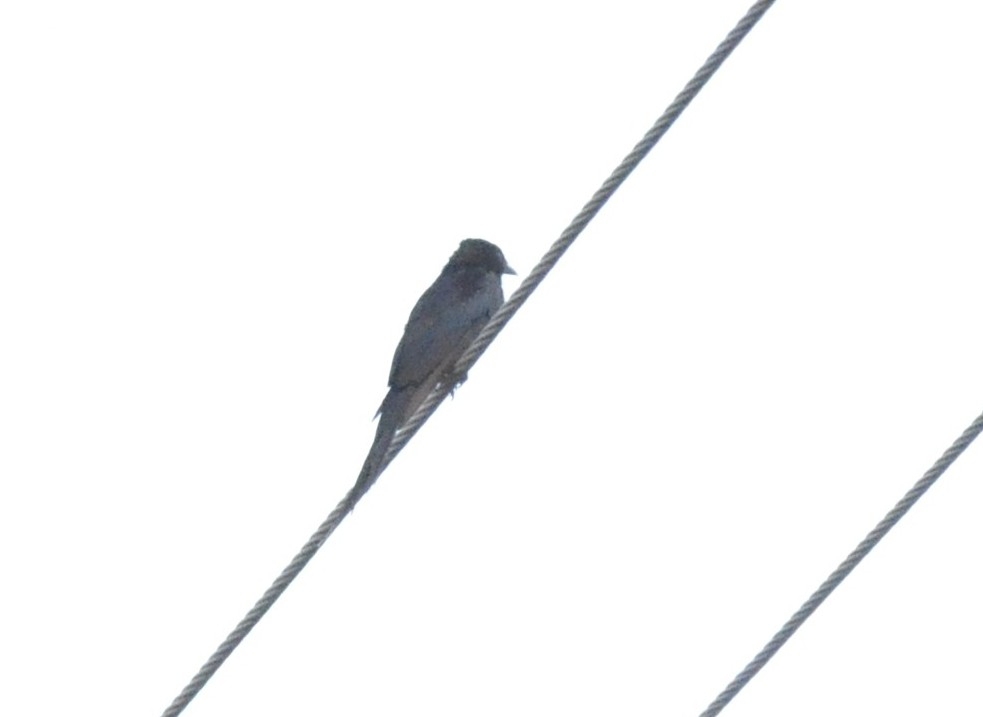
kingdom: Animalia
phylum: Chordata
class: Aves
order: Passeriformes
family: Dicruridae
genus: Dicrurus
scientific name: Dicrurus macrocercus
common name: Black drongo
